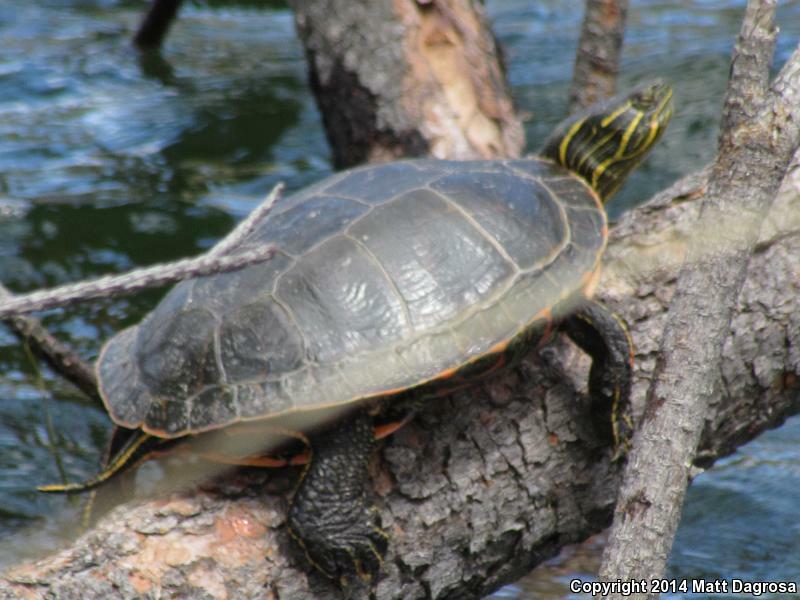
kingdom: Animalia
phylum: Chordata
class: Testudines
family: Emydidae
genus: Chrysemys
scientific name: Chrysemys picta
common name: Painted turtle
